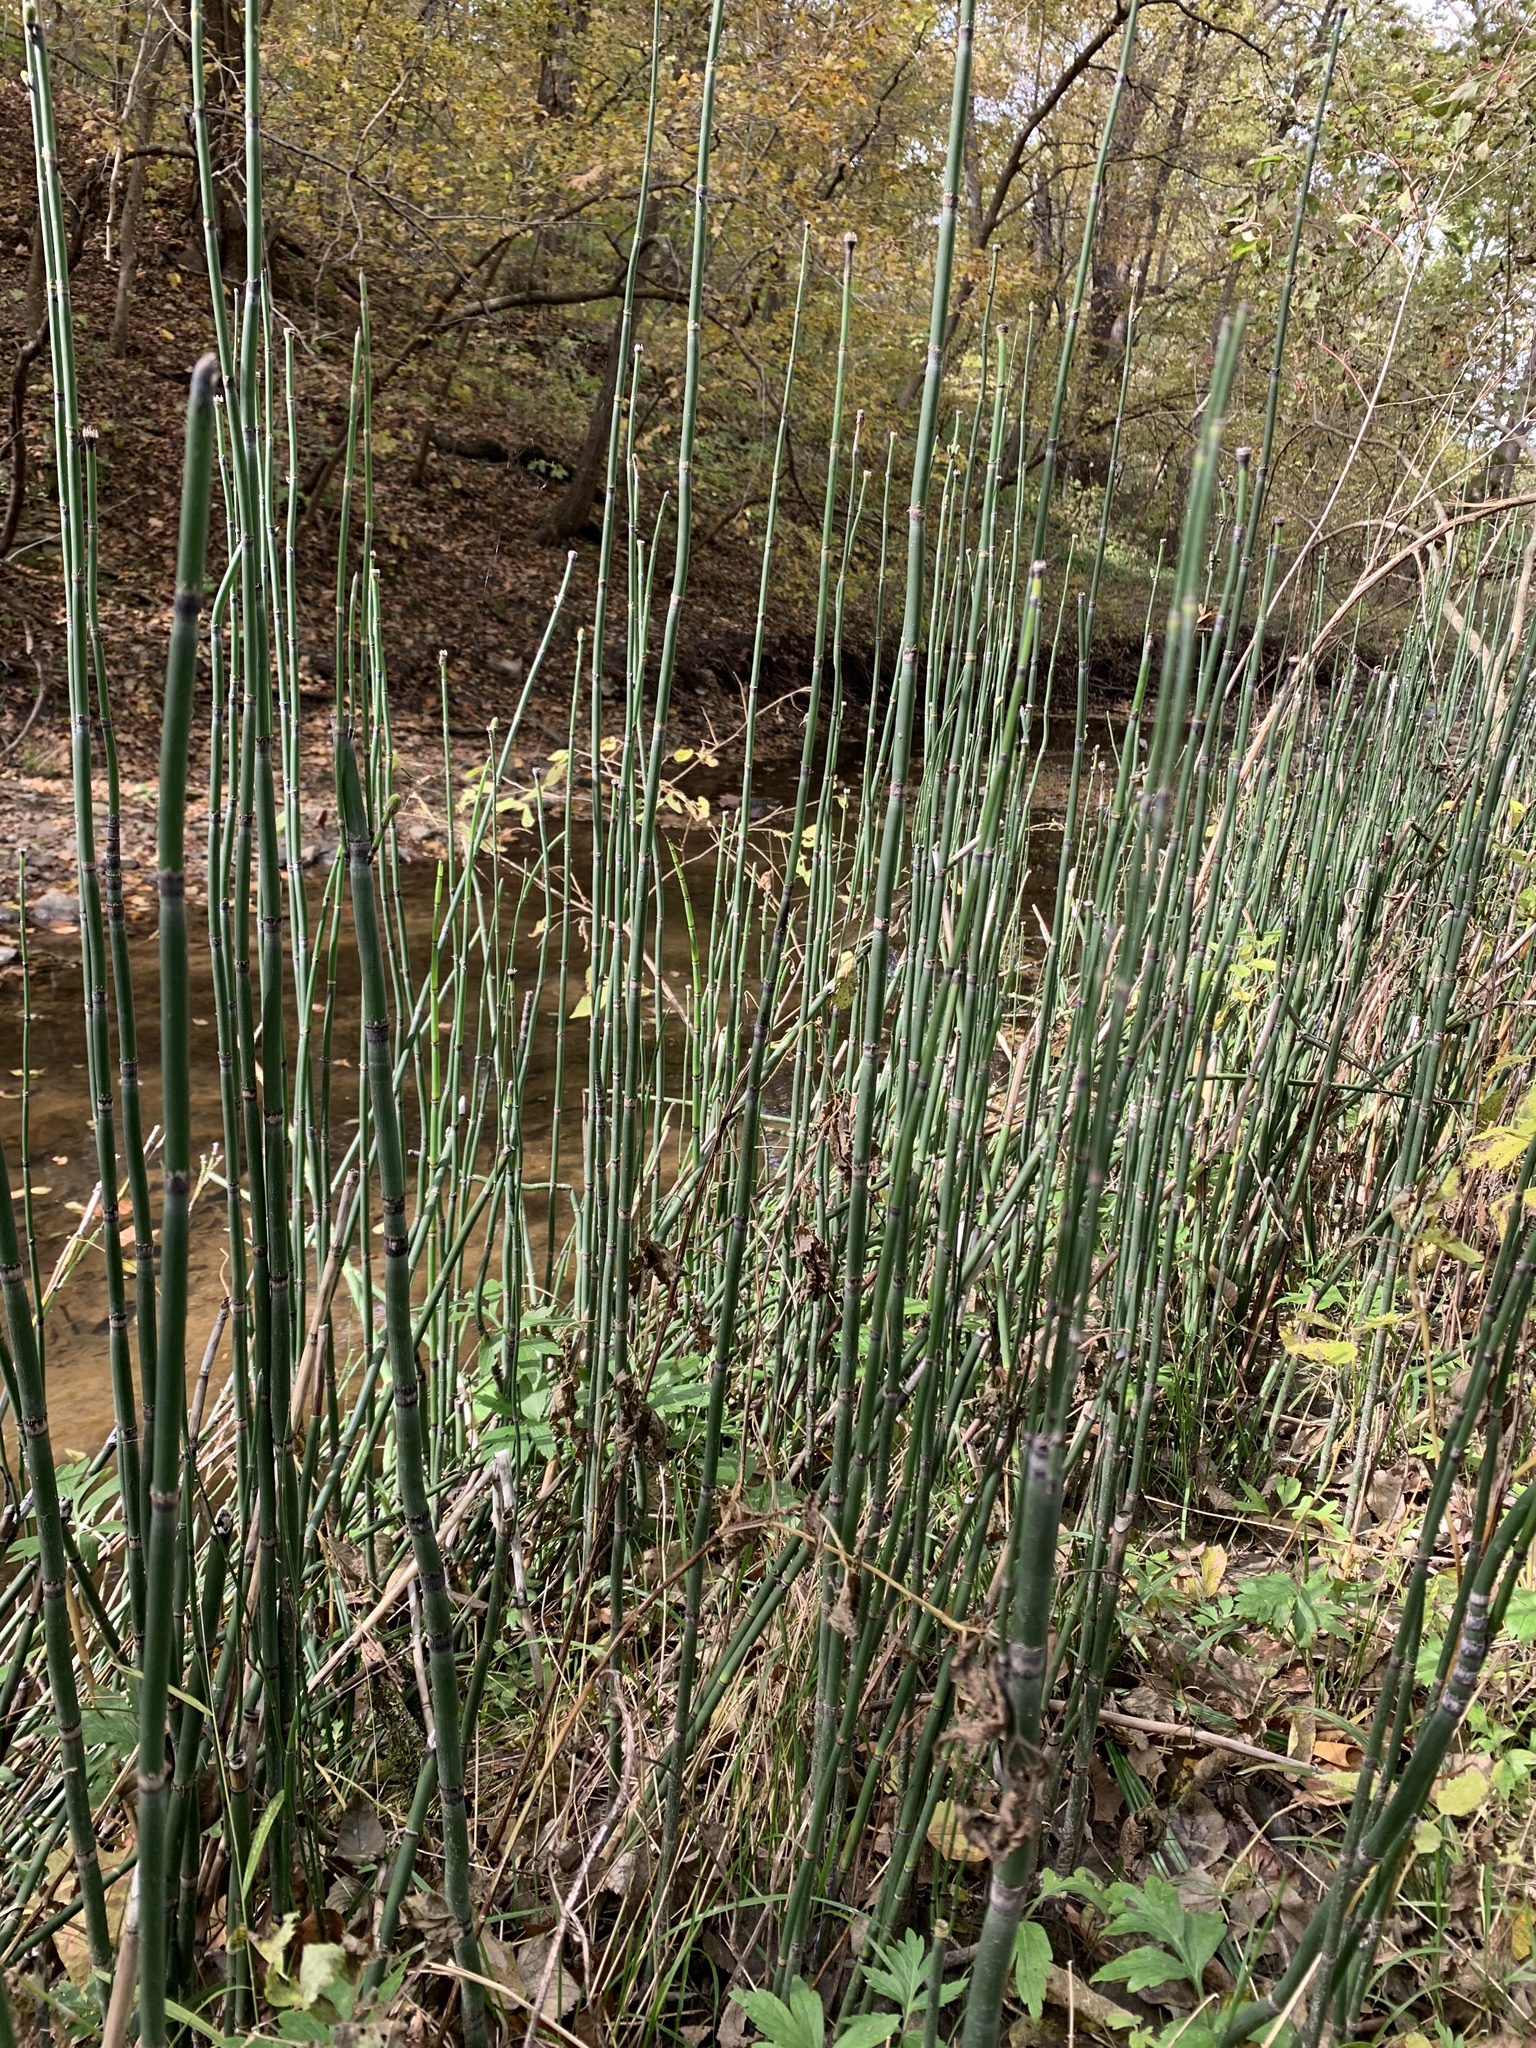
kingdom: Plantae
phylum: Tracheophyta
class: Polypodiopsida
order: Equisetales
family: Equisetaceae
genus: Equisetum
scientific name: Equisetum praealtum
